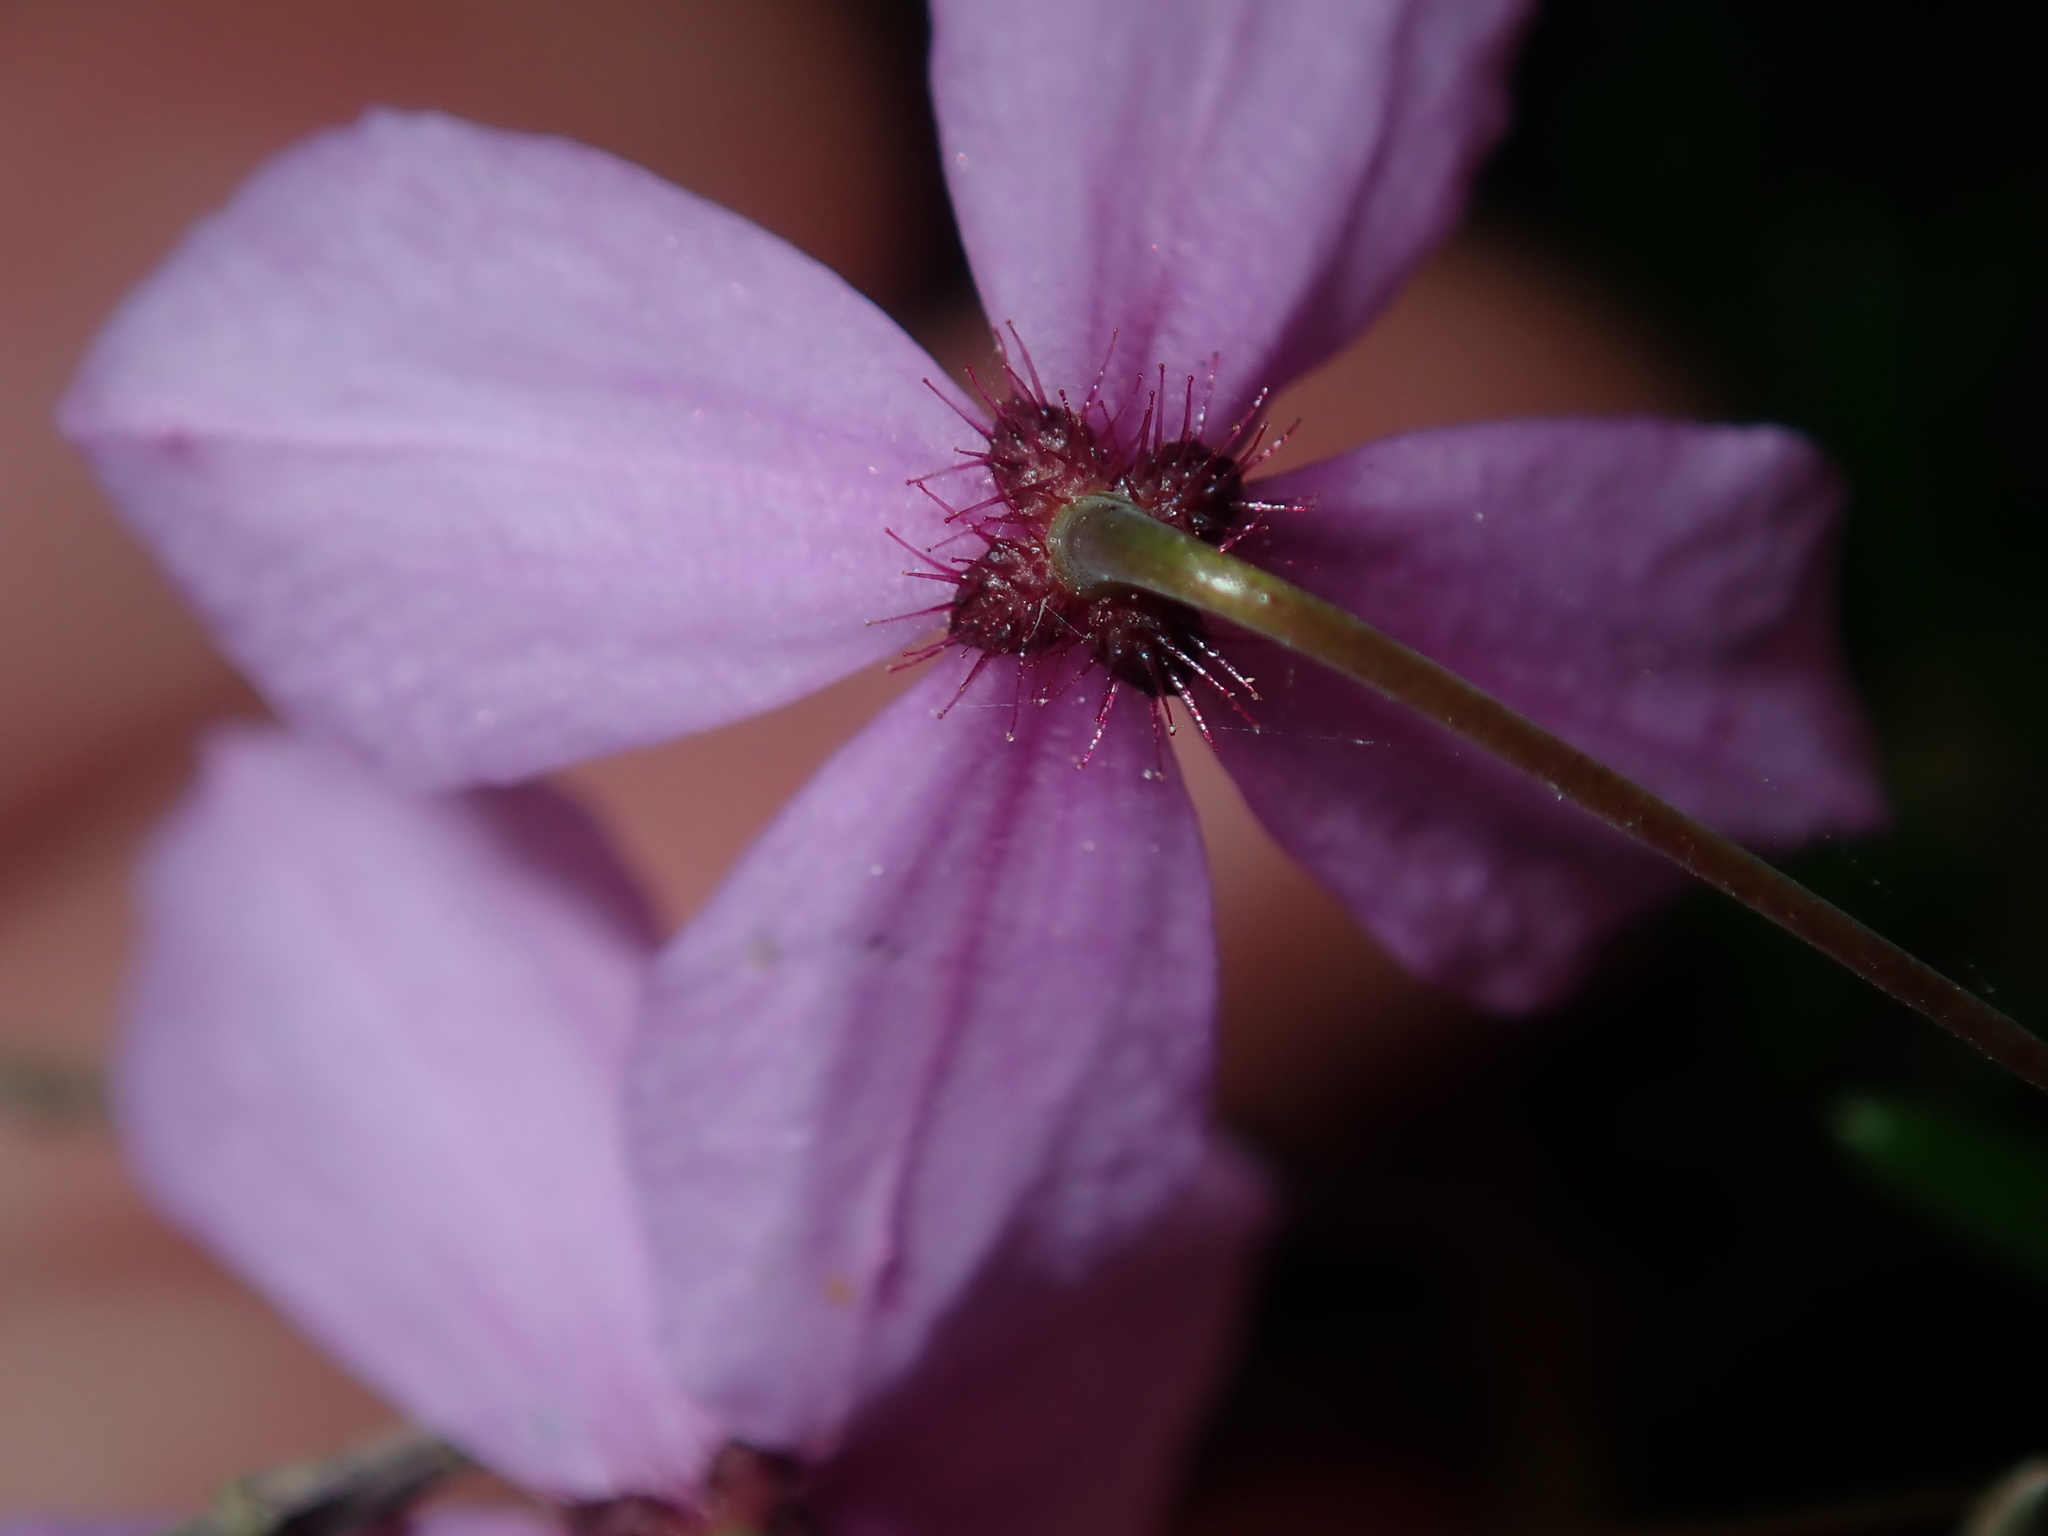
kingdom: Plantae
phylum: Tracheophyta
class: Magnoliopsida
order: Oxalidales
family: Elaeocarpaceae
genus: Tetratheca
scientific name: Tetratheca ericifolia
